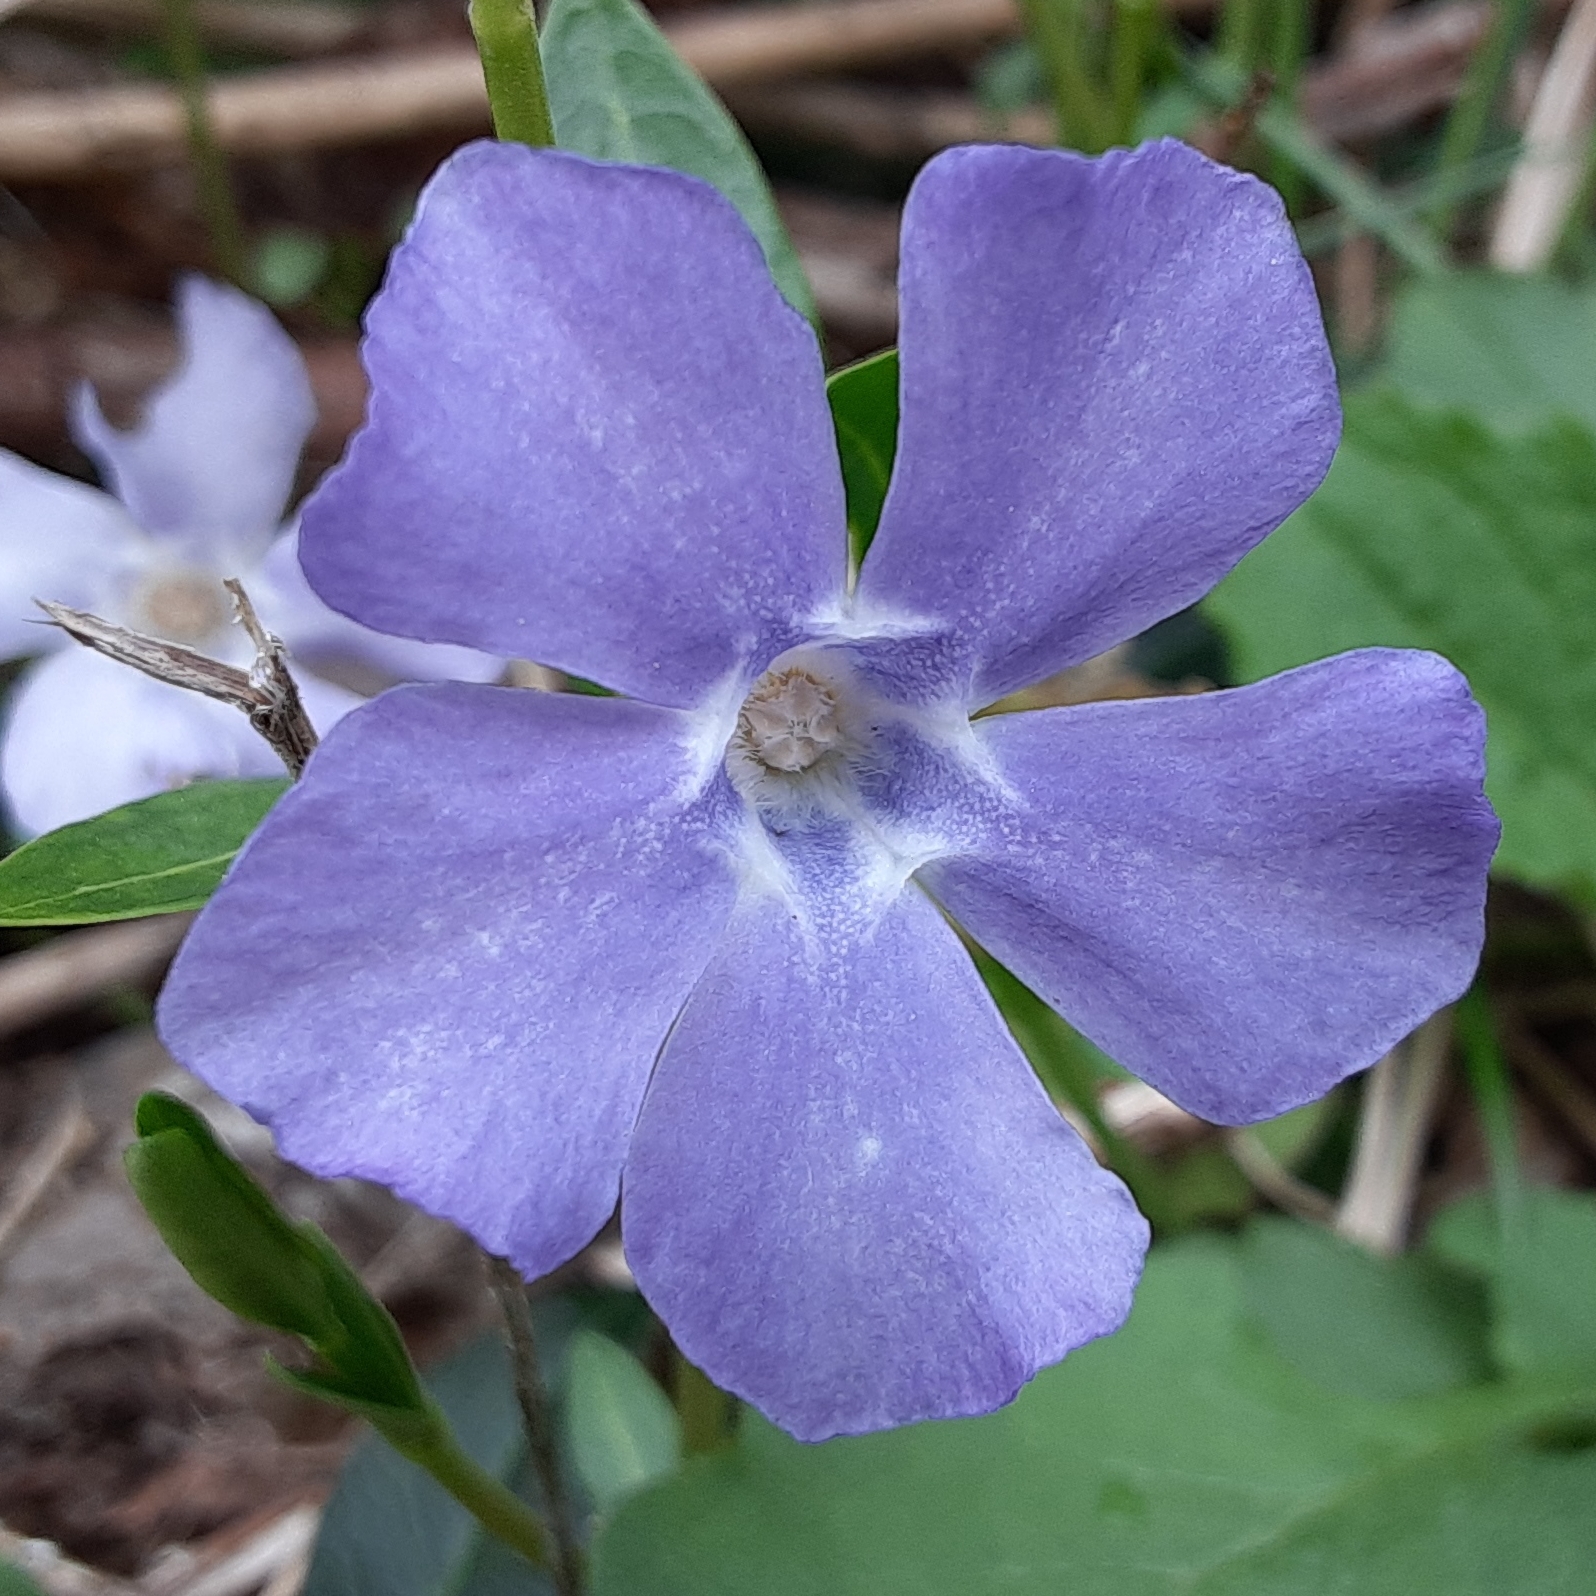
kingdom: Plantae
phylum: Tracheophyta
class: Magnoliopsida
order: Gentianales
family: Apocynaceae
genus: Vinca
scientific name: Vinca minor
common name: Lesser periwinkle
